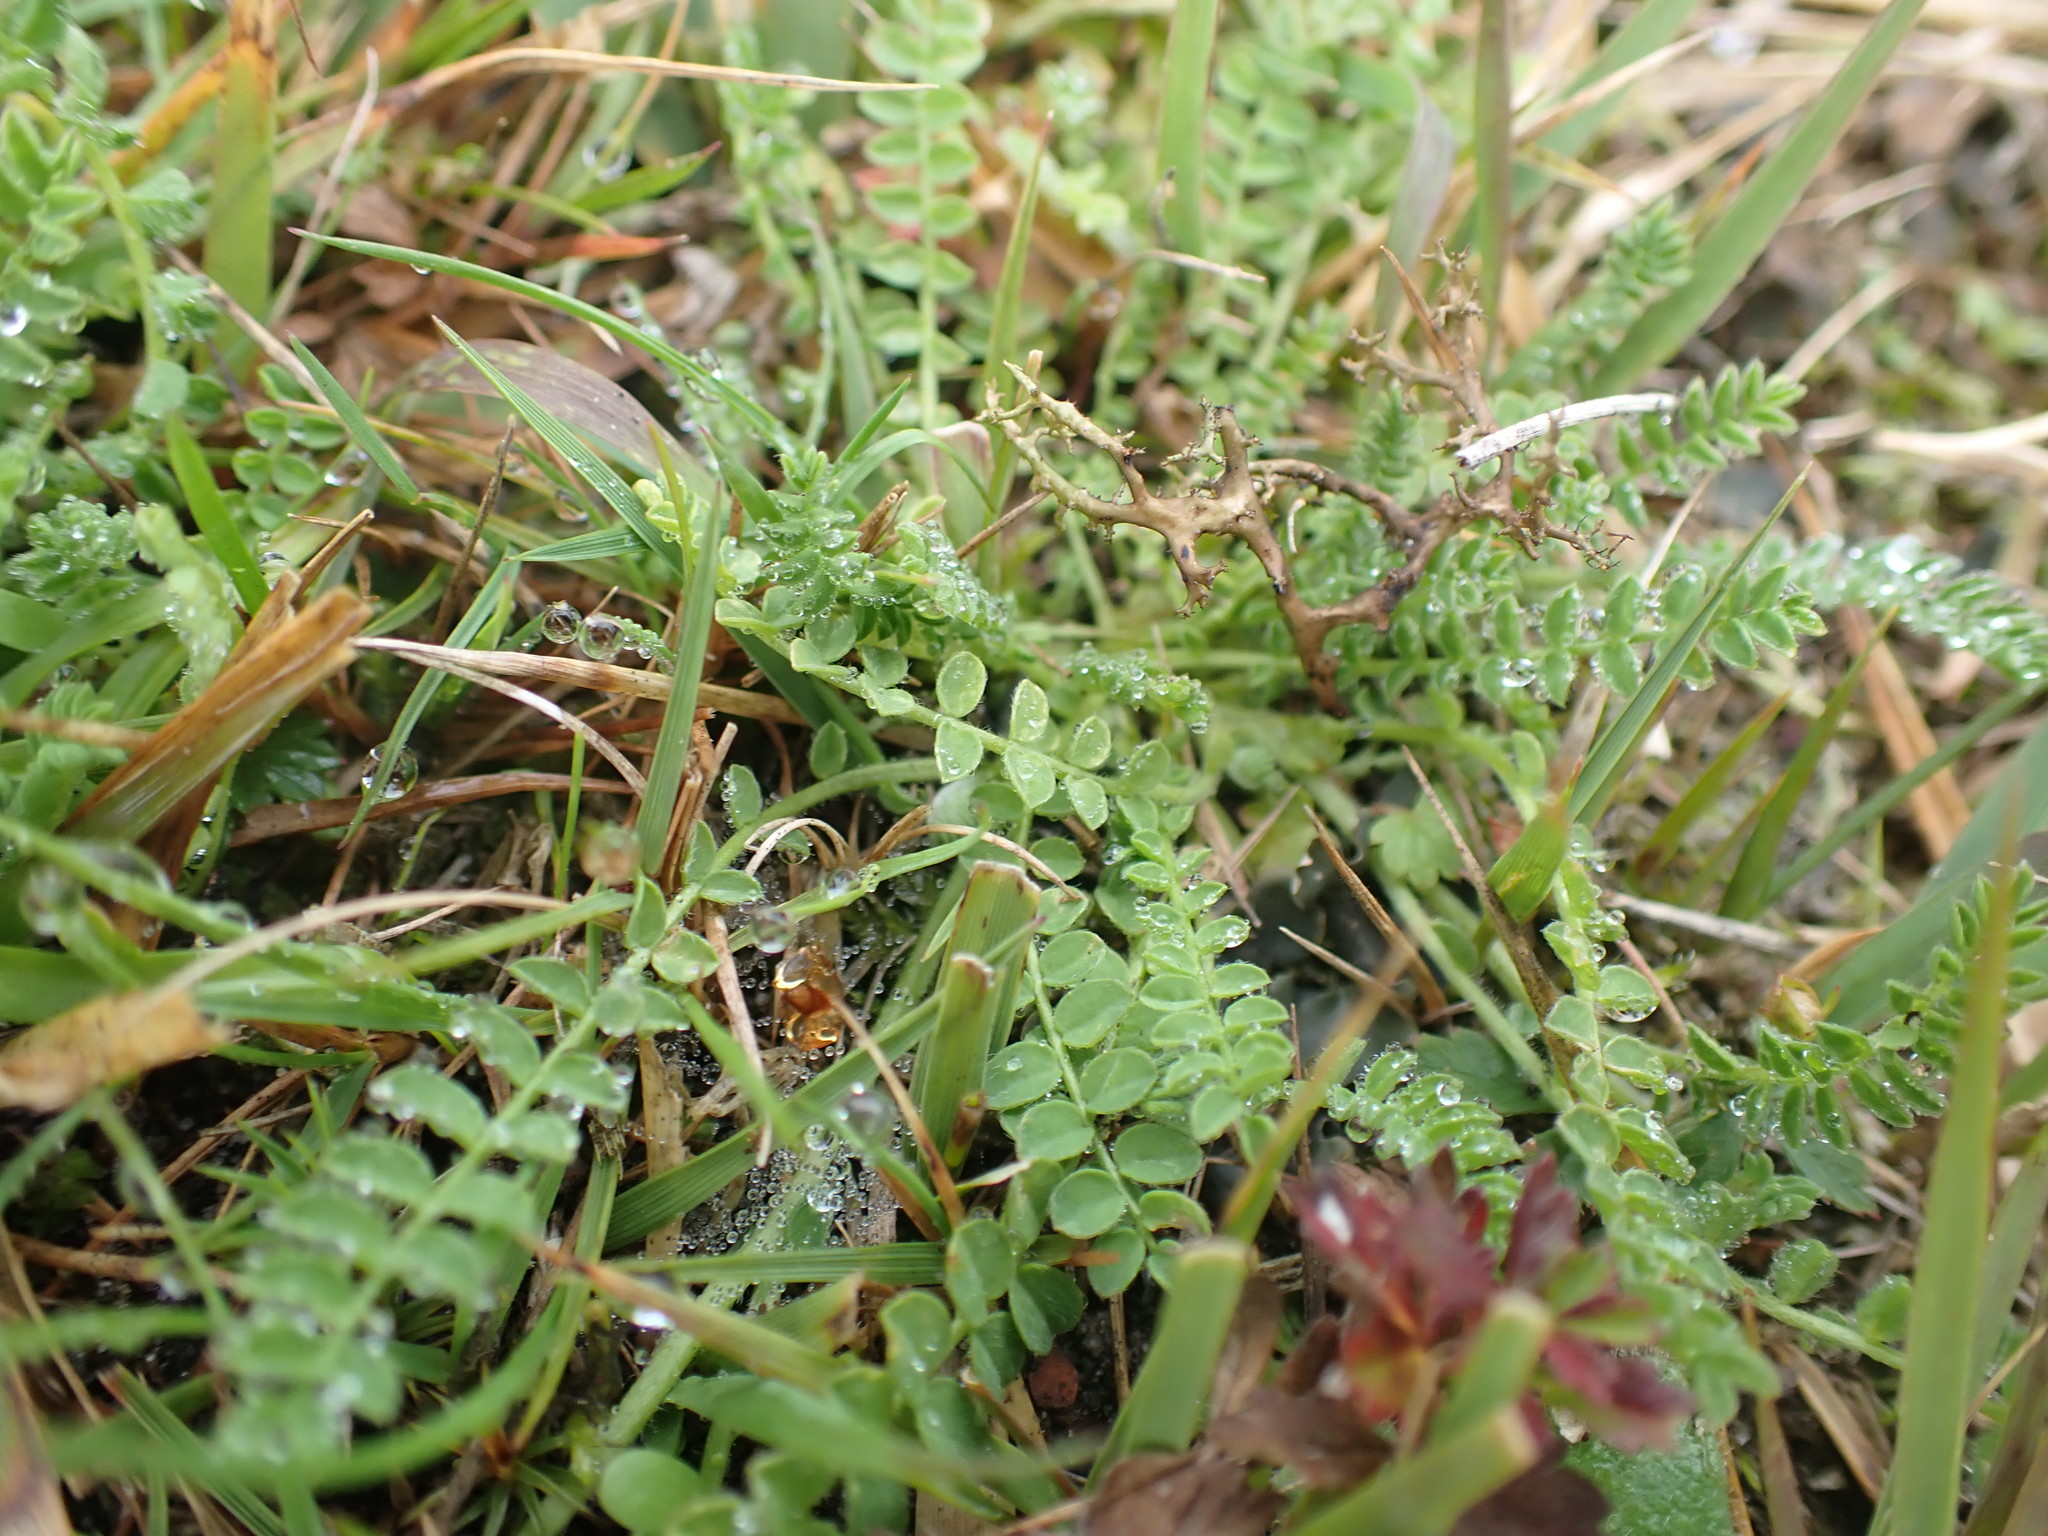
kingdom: Plantae
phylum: Tracheophyta
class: Magnoliopsida
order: Fabales
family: Fabaceae
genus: Ornithopus
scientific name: Ornithopus perpusillus
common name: Bird's-foot
